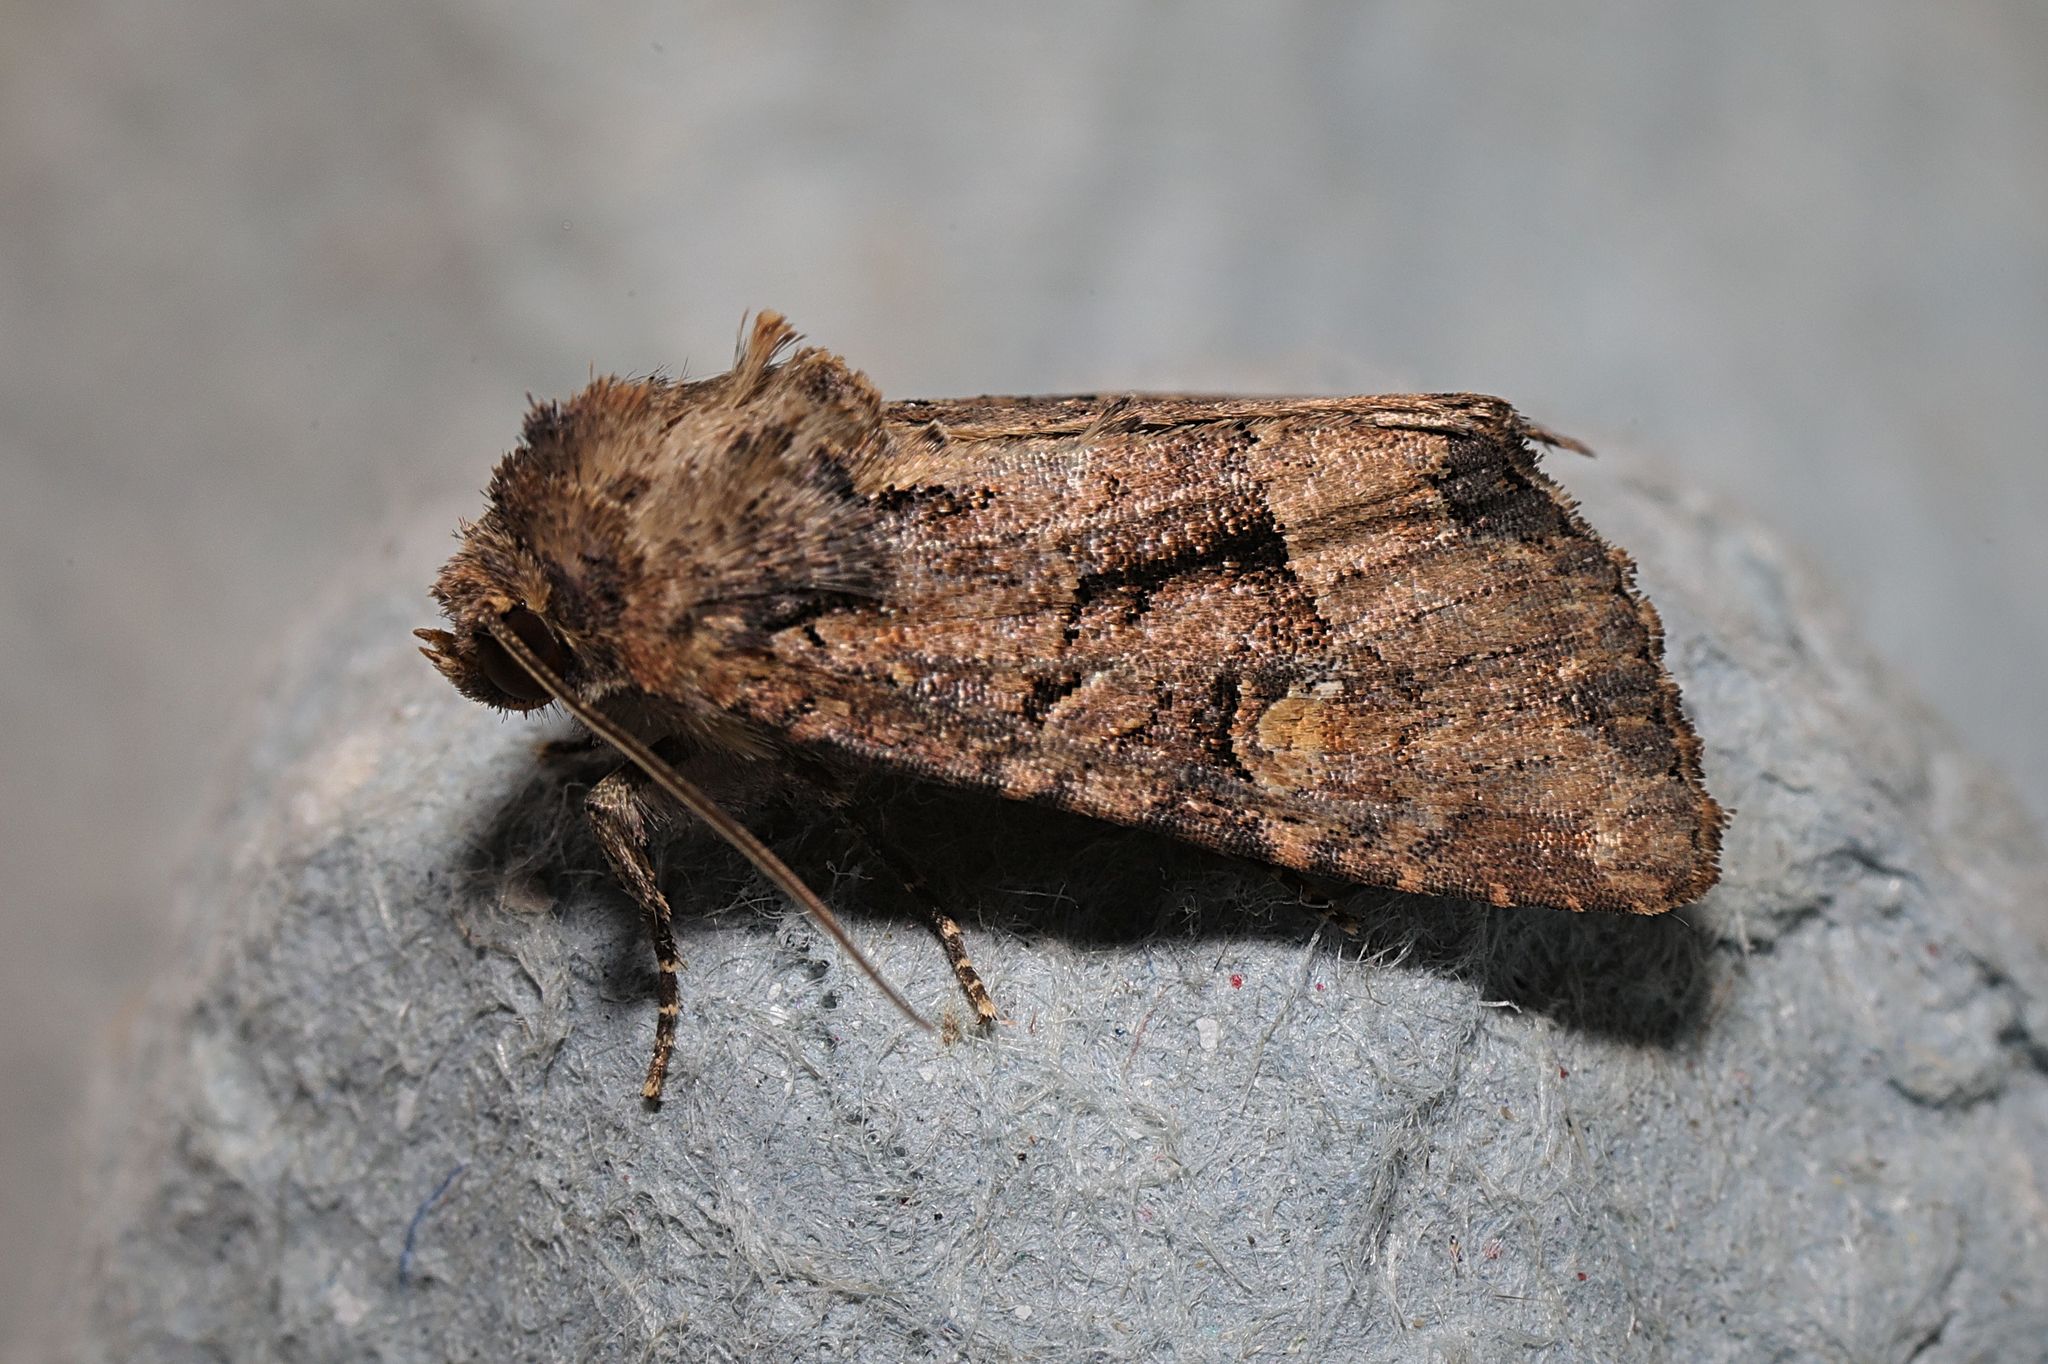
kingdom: Animalia
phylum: Arthropoda
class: Insecta
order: Lepidoptera
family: Noctuidae
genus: Thalpophila
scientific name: Thalpophila matura
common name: Straw underwing
